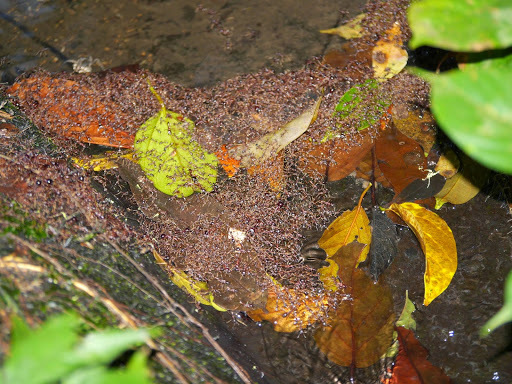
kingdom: Animalia
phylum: Arthropoda
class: Insecta
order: Hymenoptera
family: Formicidae
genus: Dorylus
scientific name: Dorylus wilverthi
